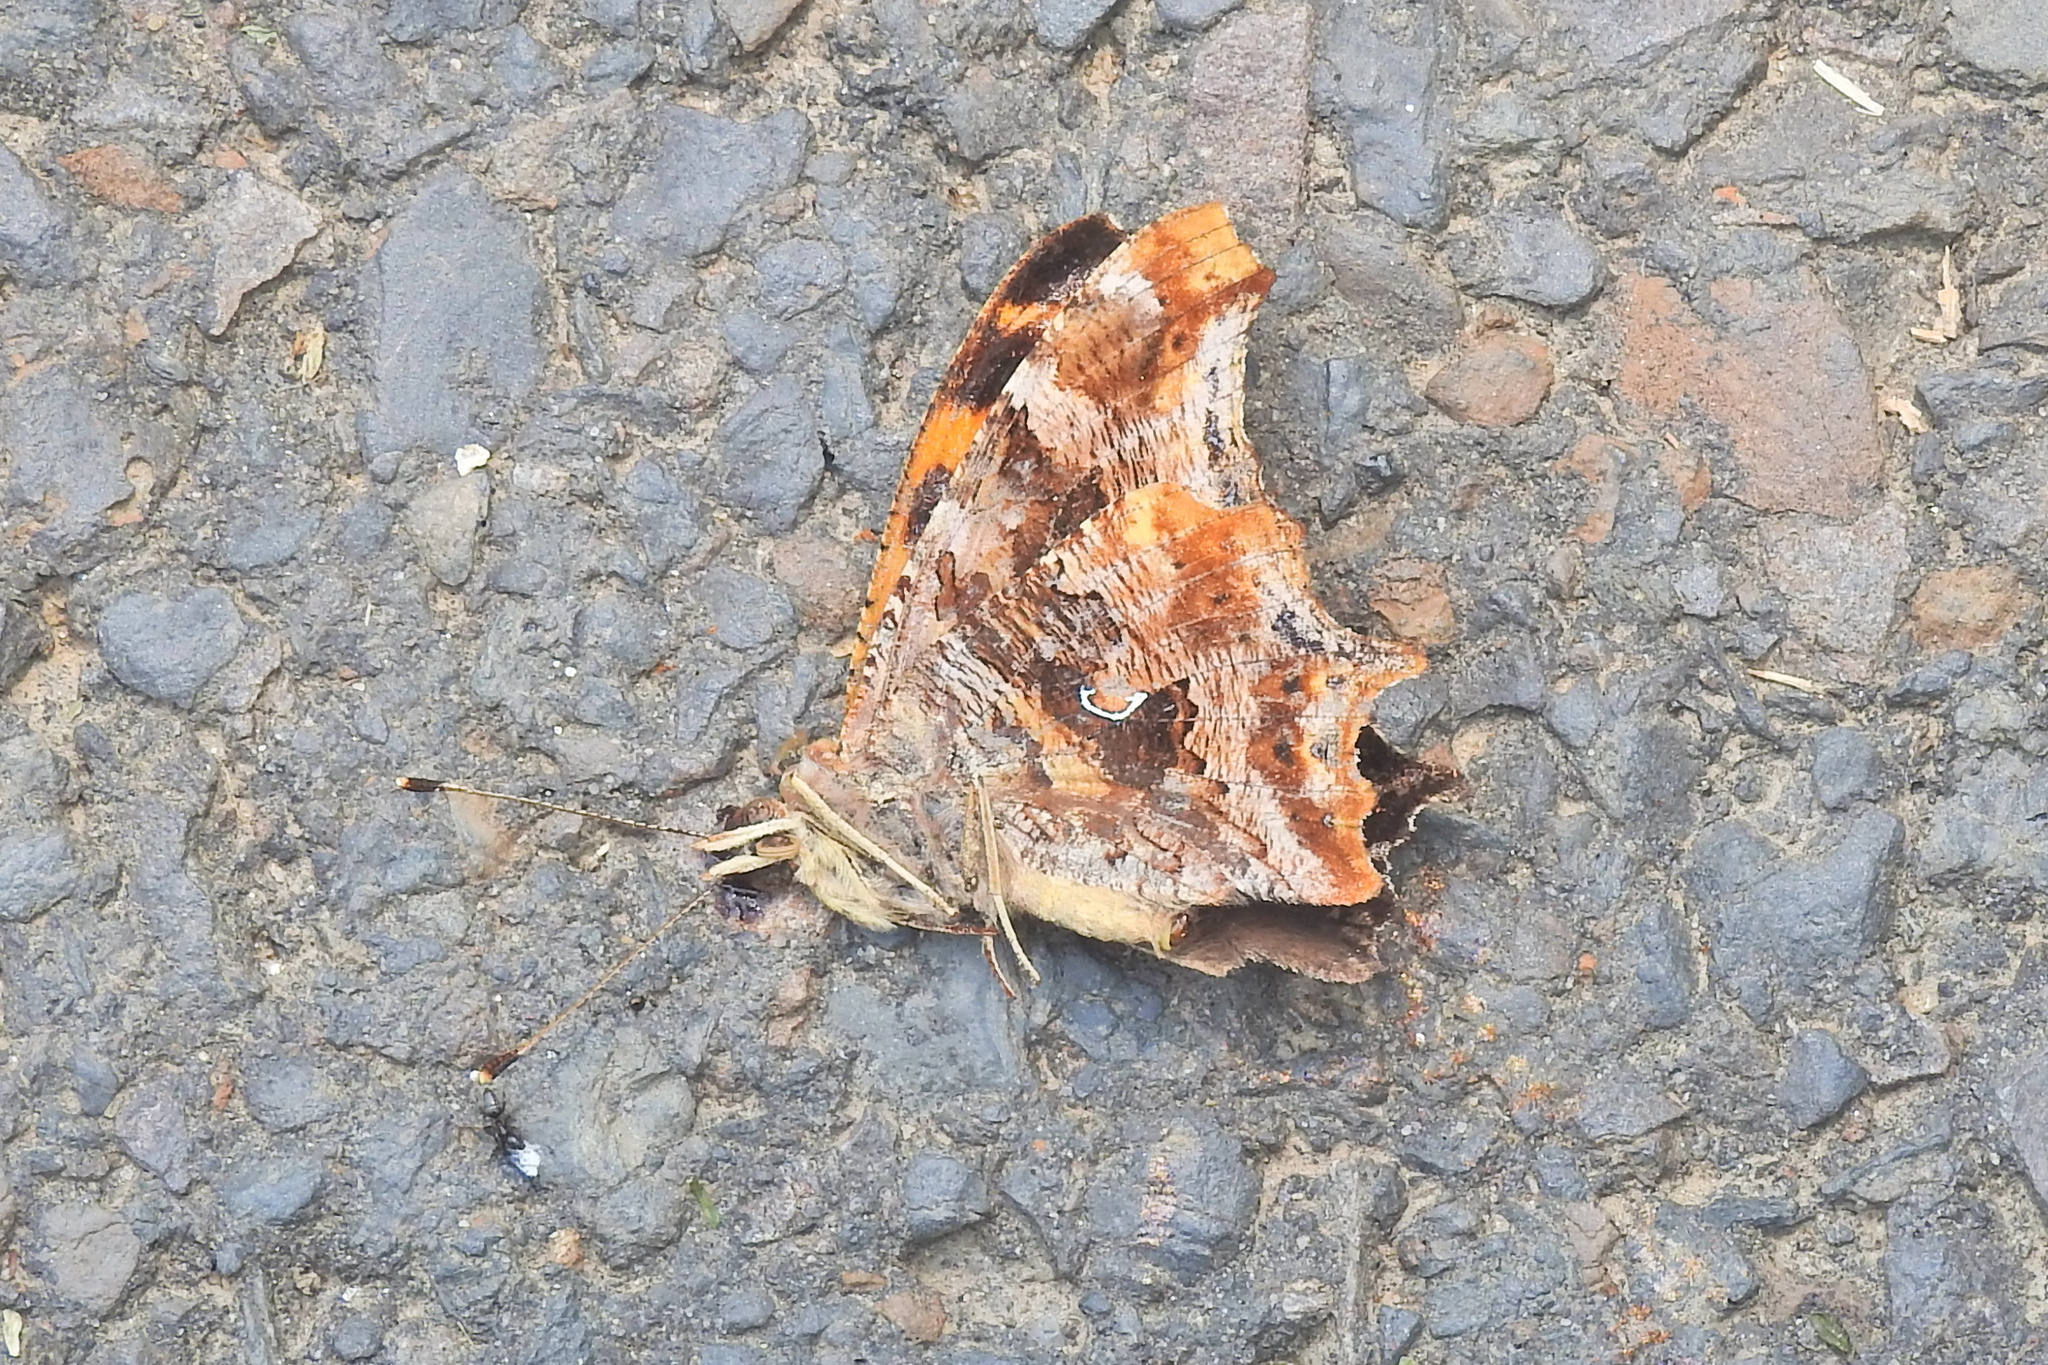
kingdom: Animalia
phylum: Arthropoda
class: Insecta
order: Lepidoptera
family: Nymphalidae
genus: Polygonia
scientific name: Polygonia comma
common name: Eastern comma
